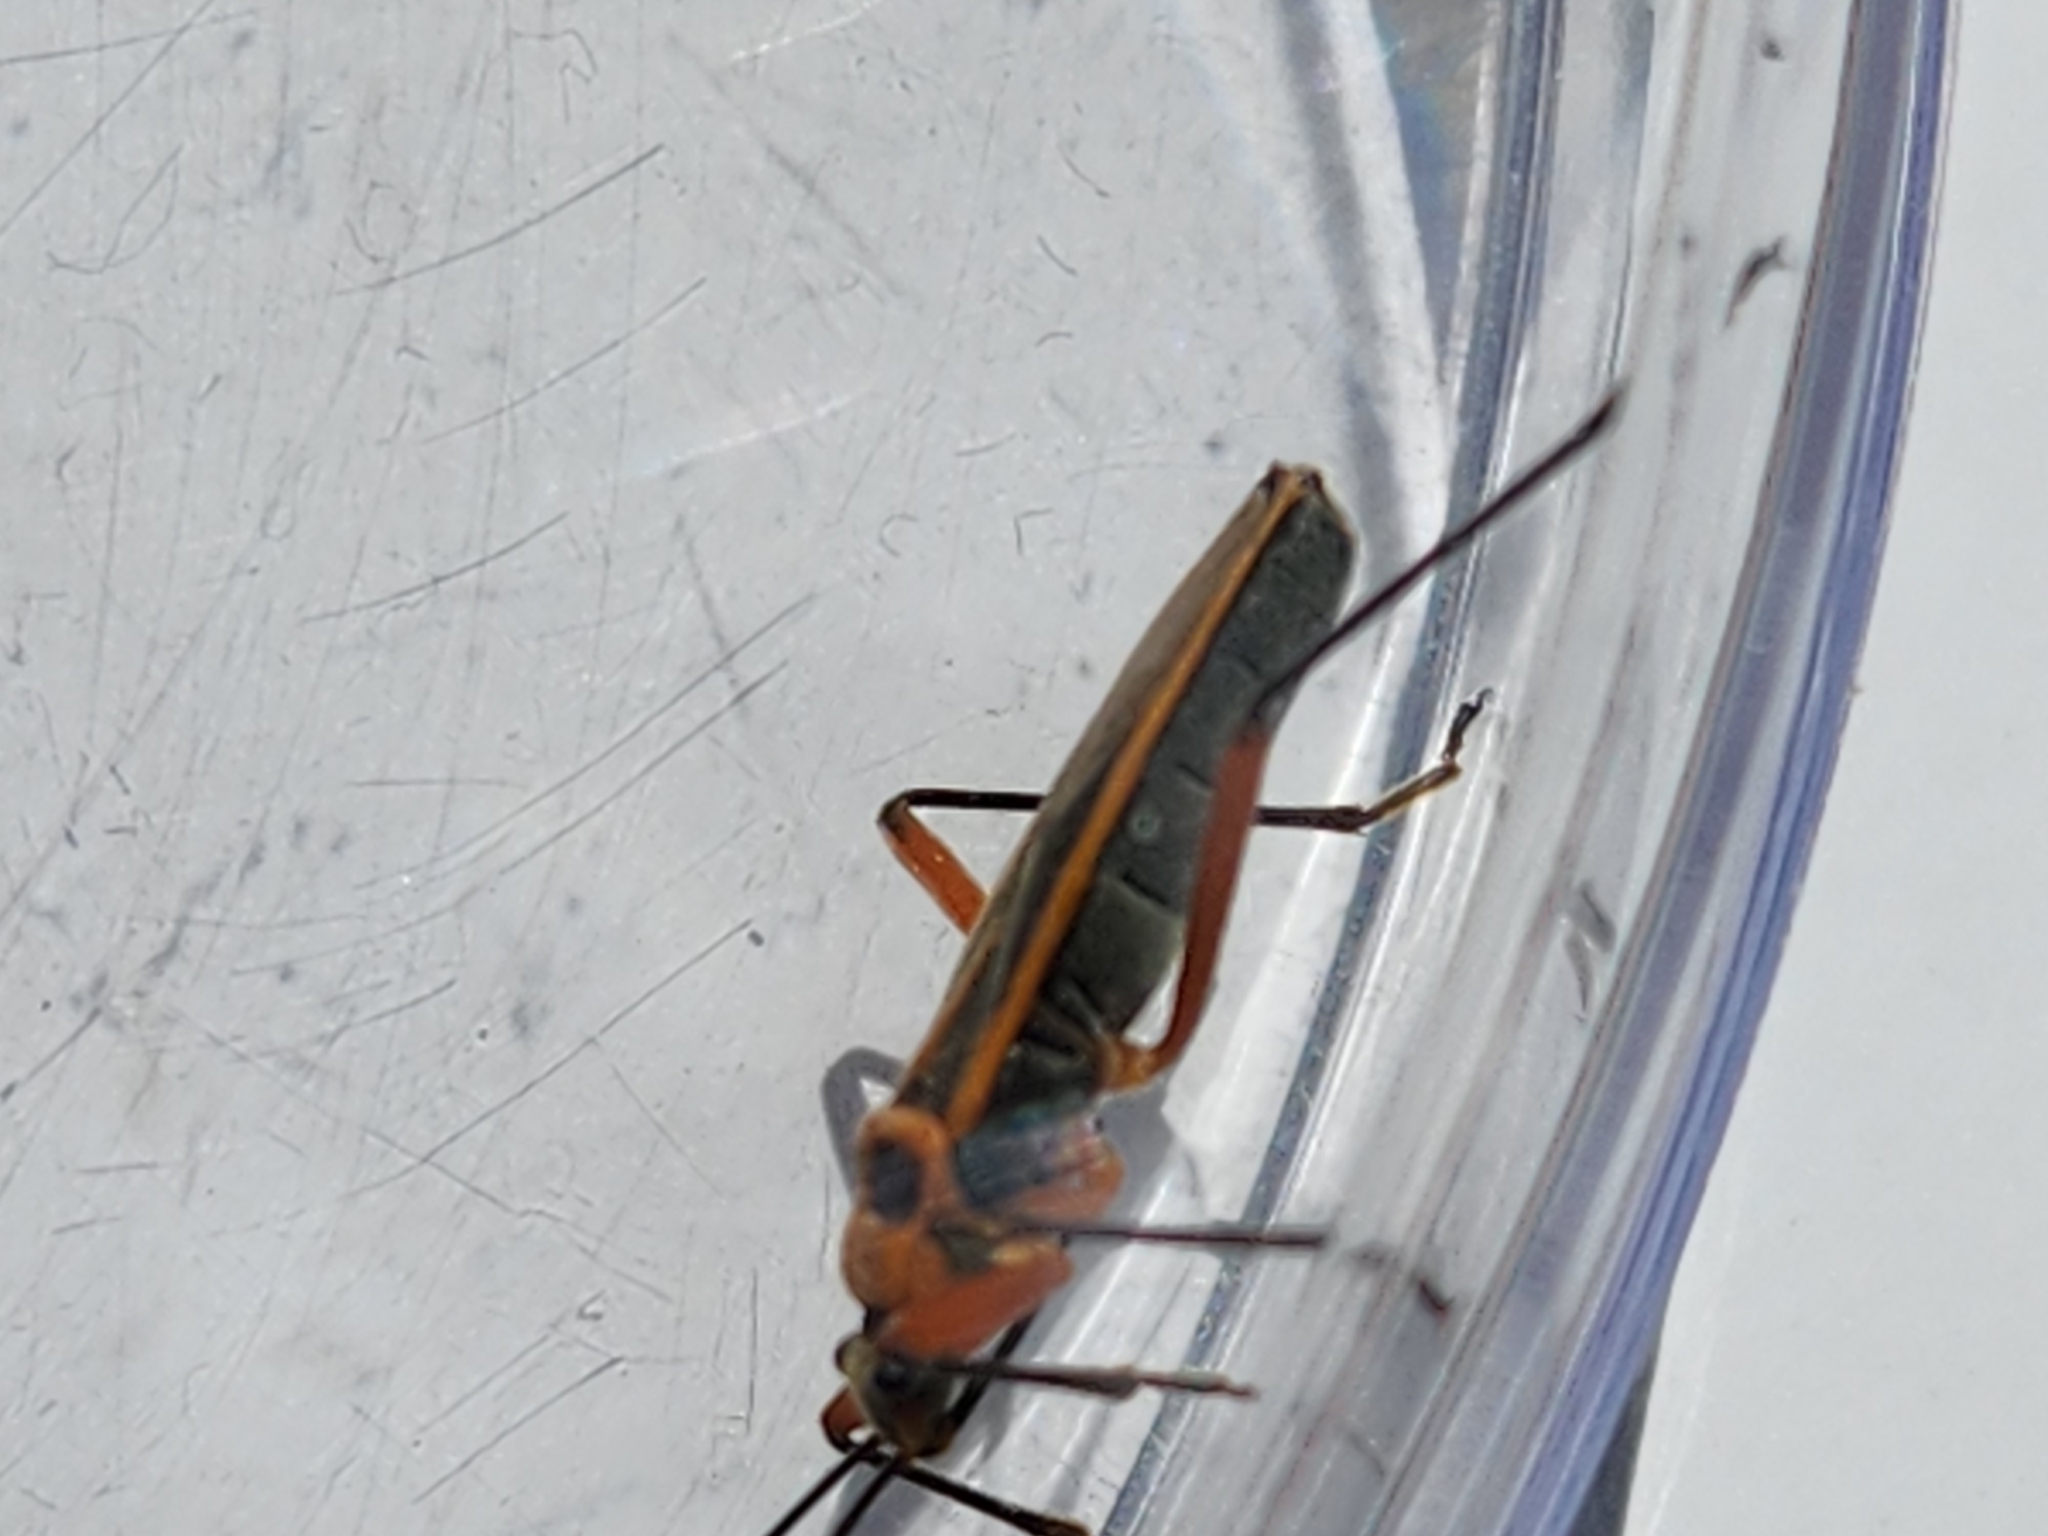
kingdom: Animalia
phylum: Arthropoda
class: Insecta
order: Hemiptera
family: Largidae
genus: Stenomacra
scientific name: Stenomacra marginella
